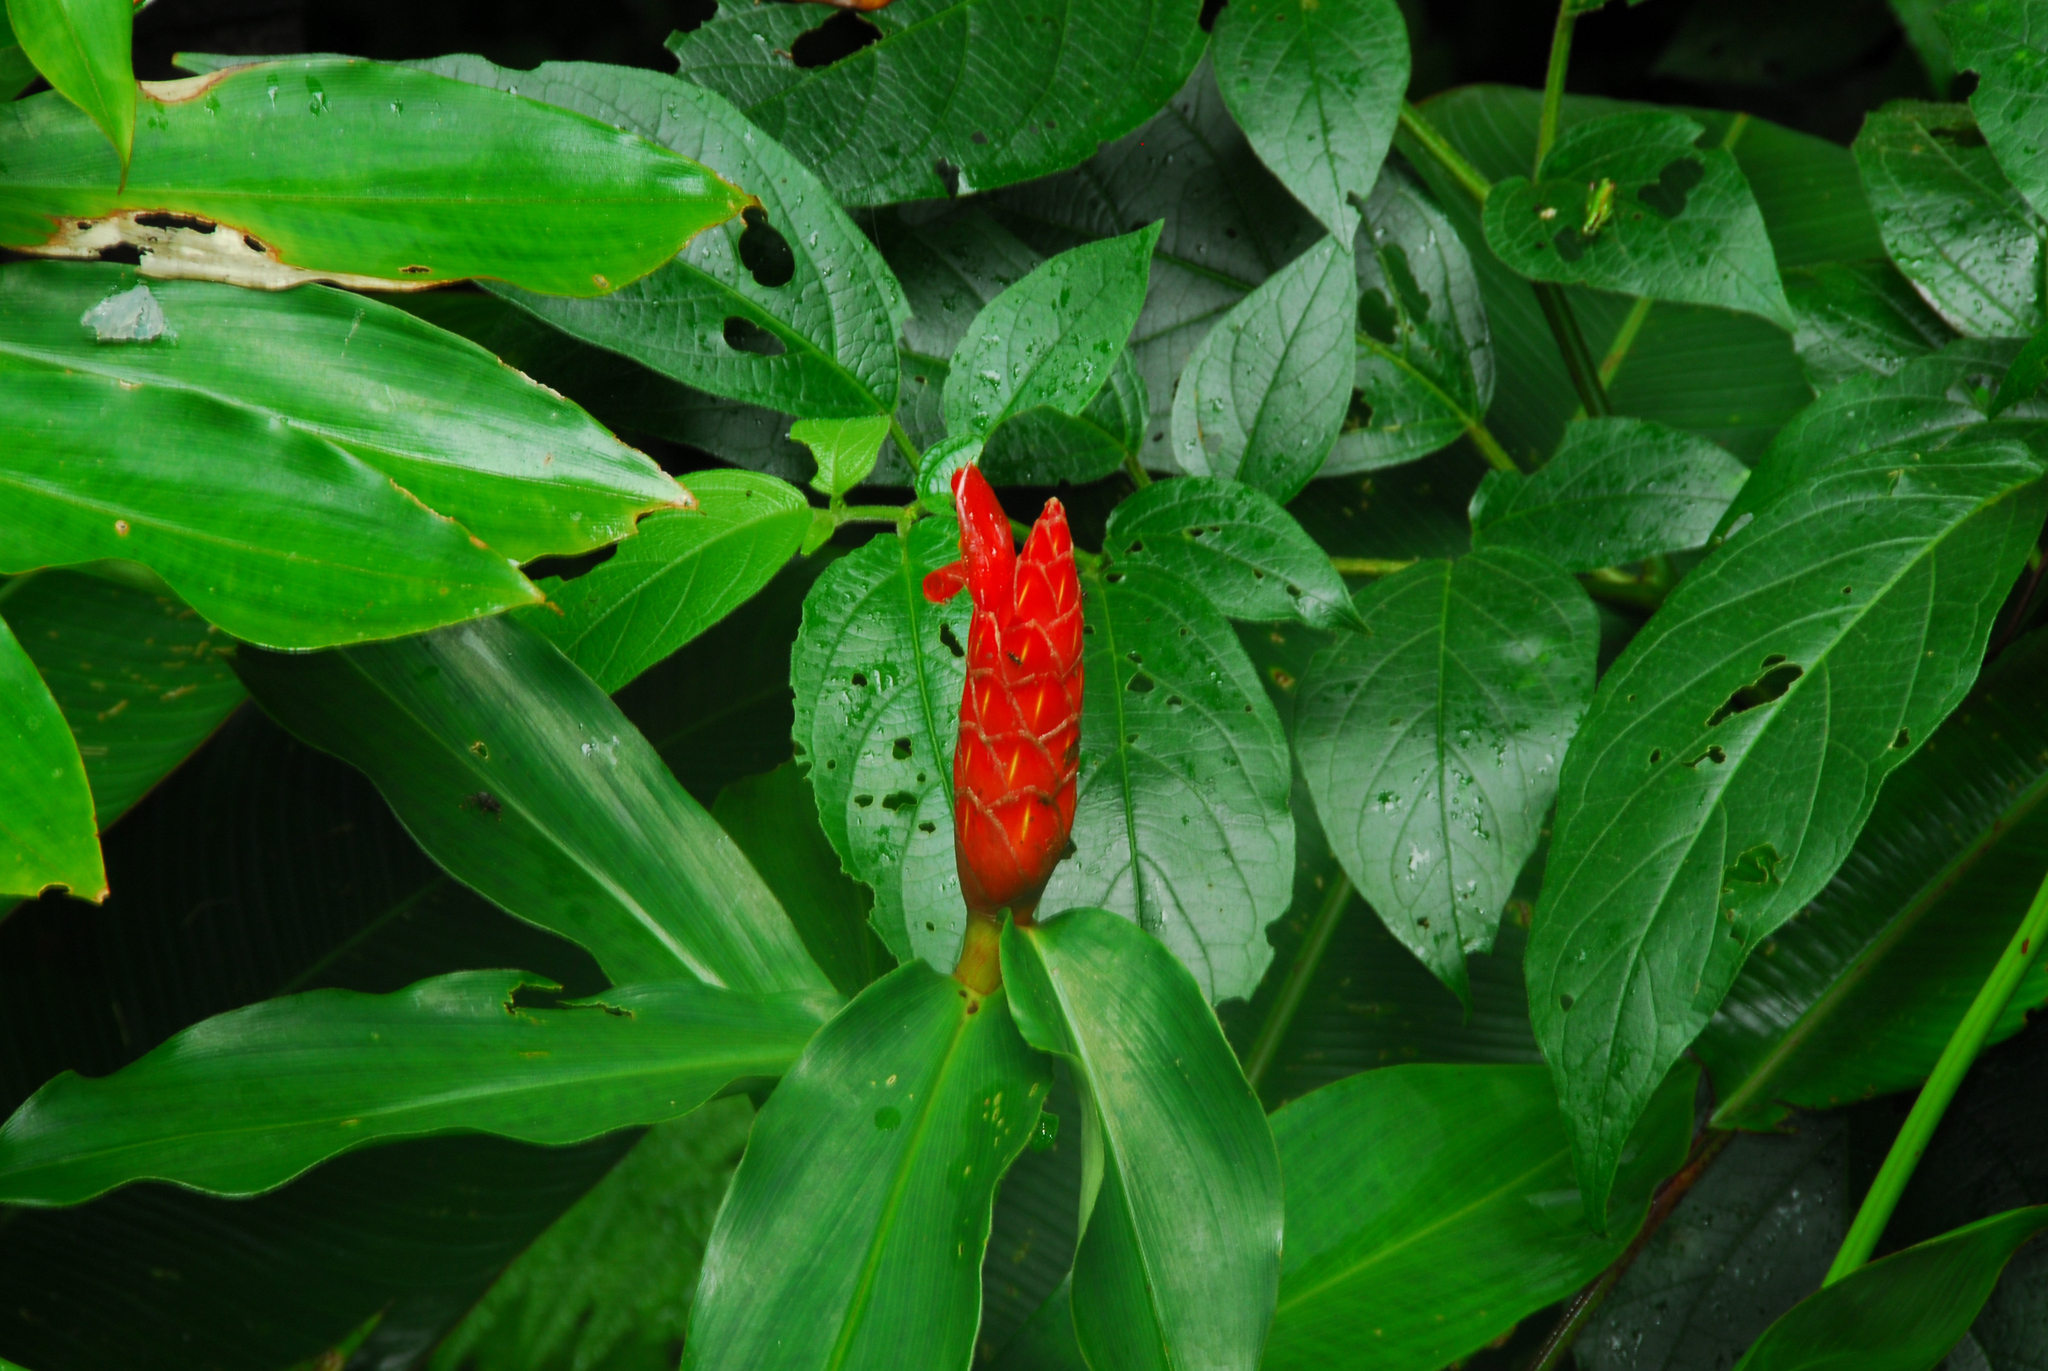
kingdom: Plantae
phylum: Tracheophyta
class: Liliopsida
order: Zingiberales
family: Costaceae
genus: Costus
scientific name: Costus pulverulentus
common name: Spiral ginger
